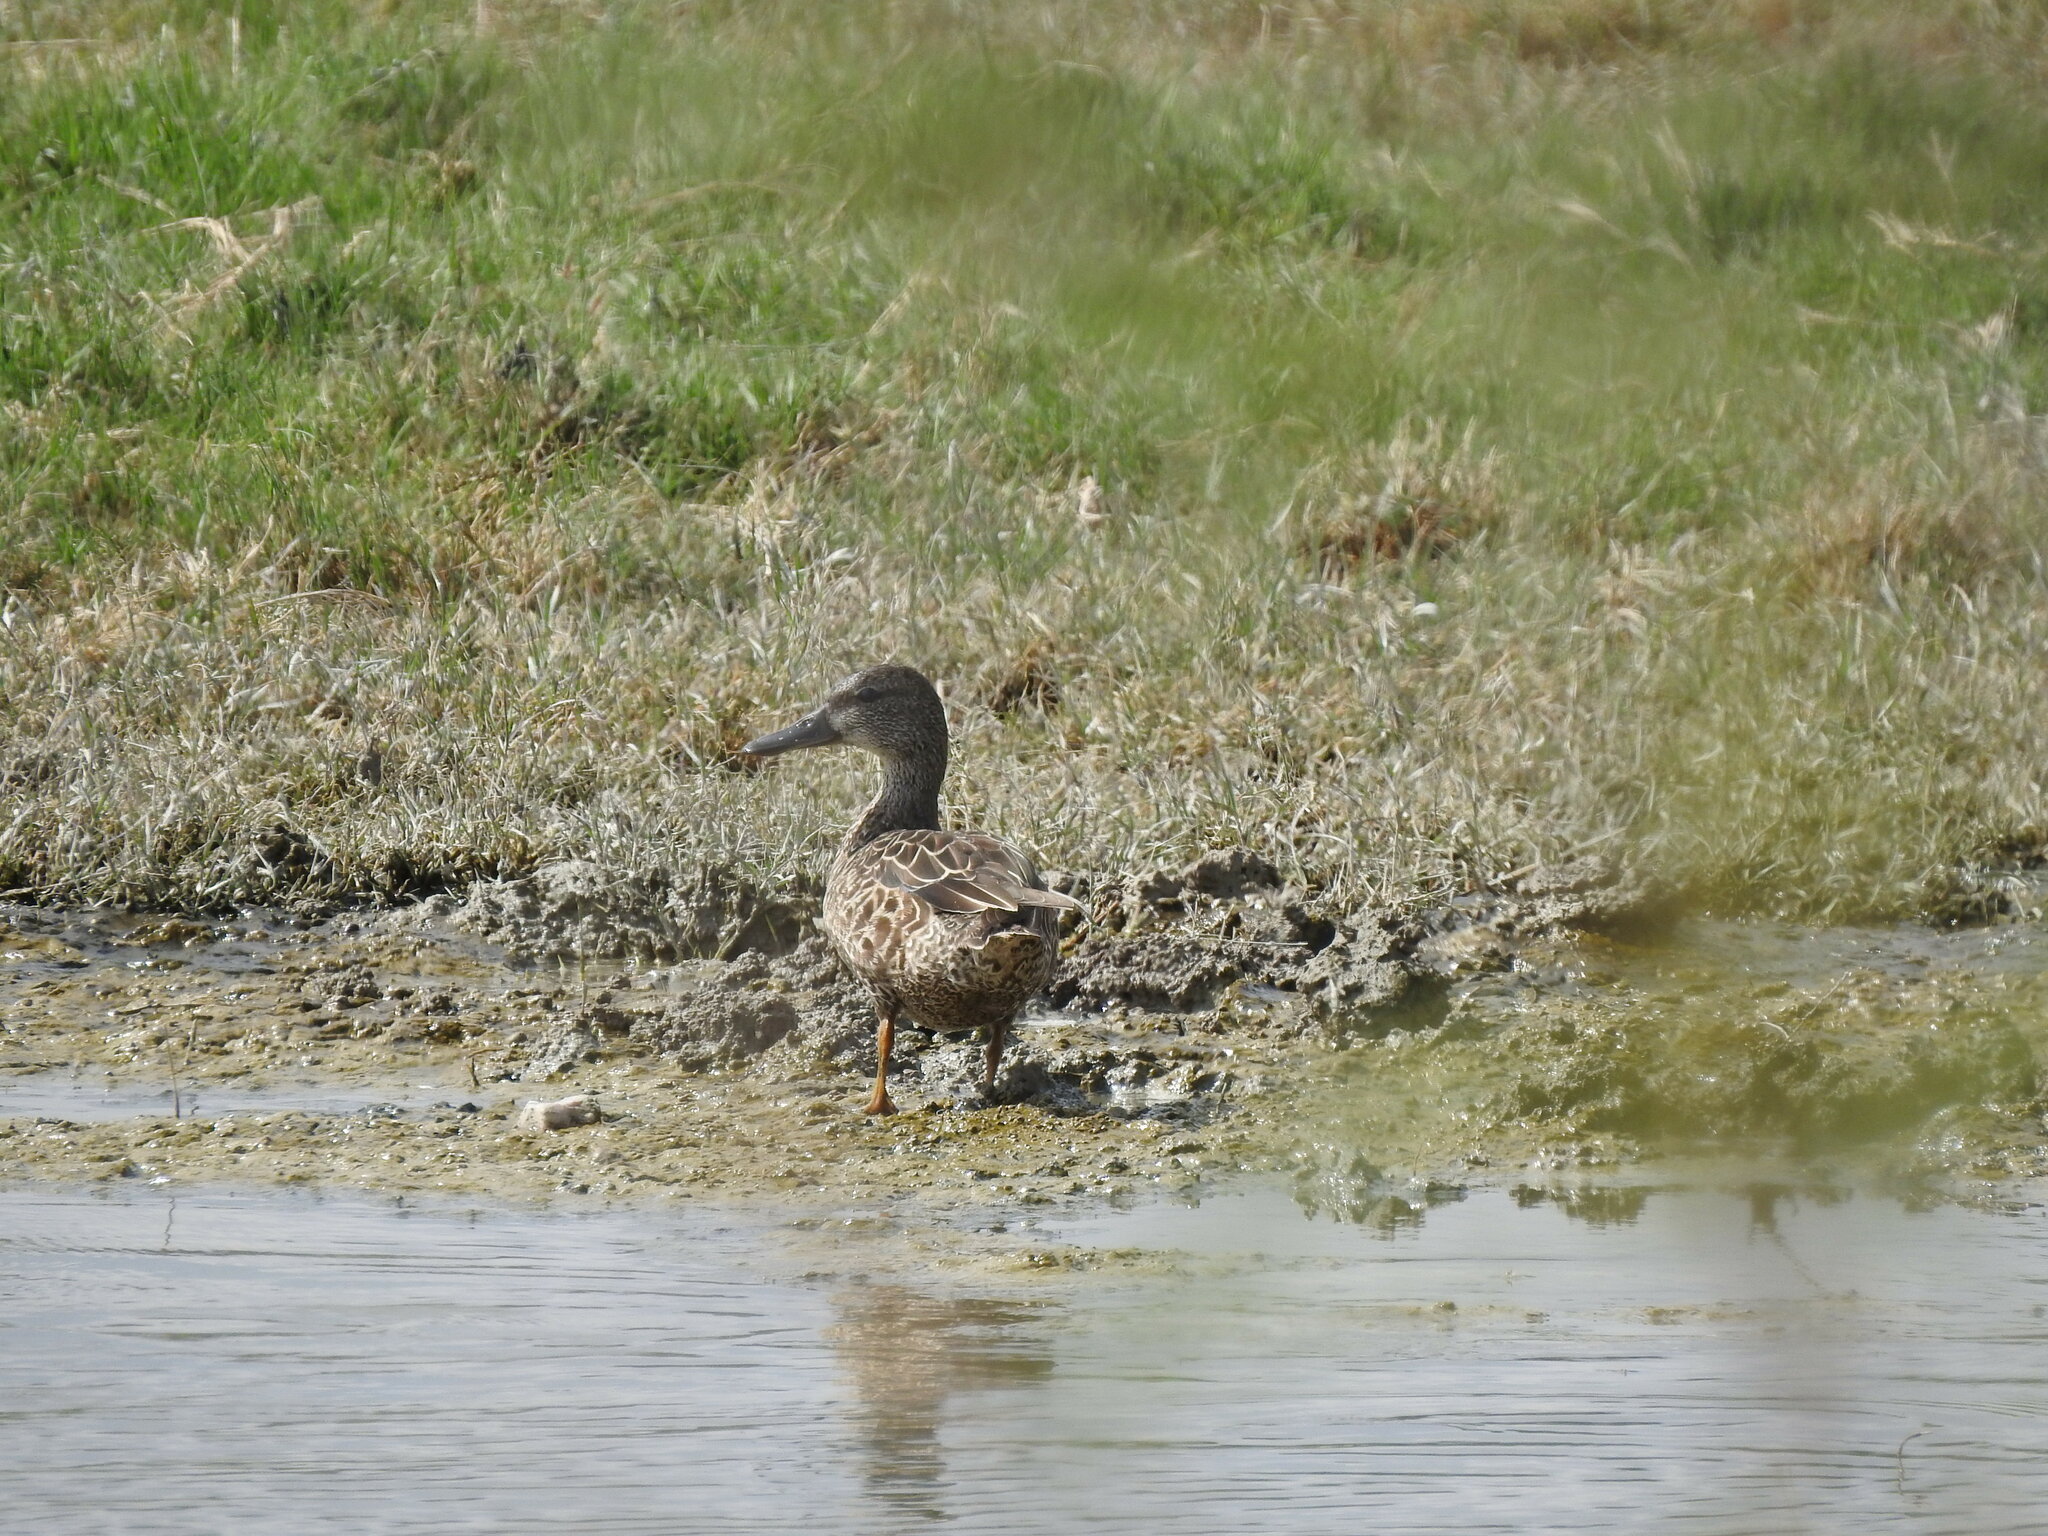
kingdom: Animalia
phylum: Chordata
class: Aves
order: Anseriformes
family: Anatidae
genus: Spatula
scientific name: Spatula discors
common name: Blue-winged teal
